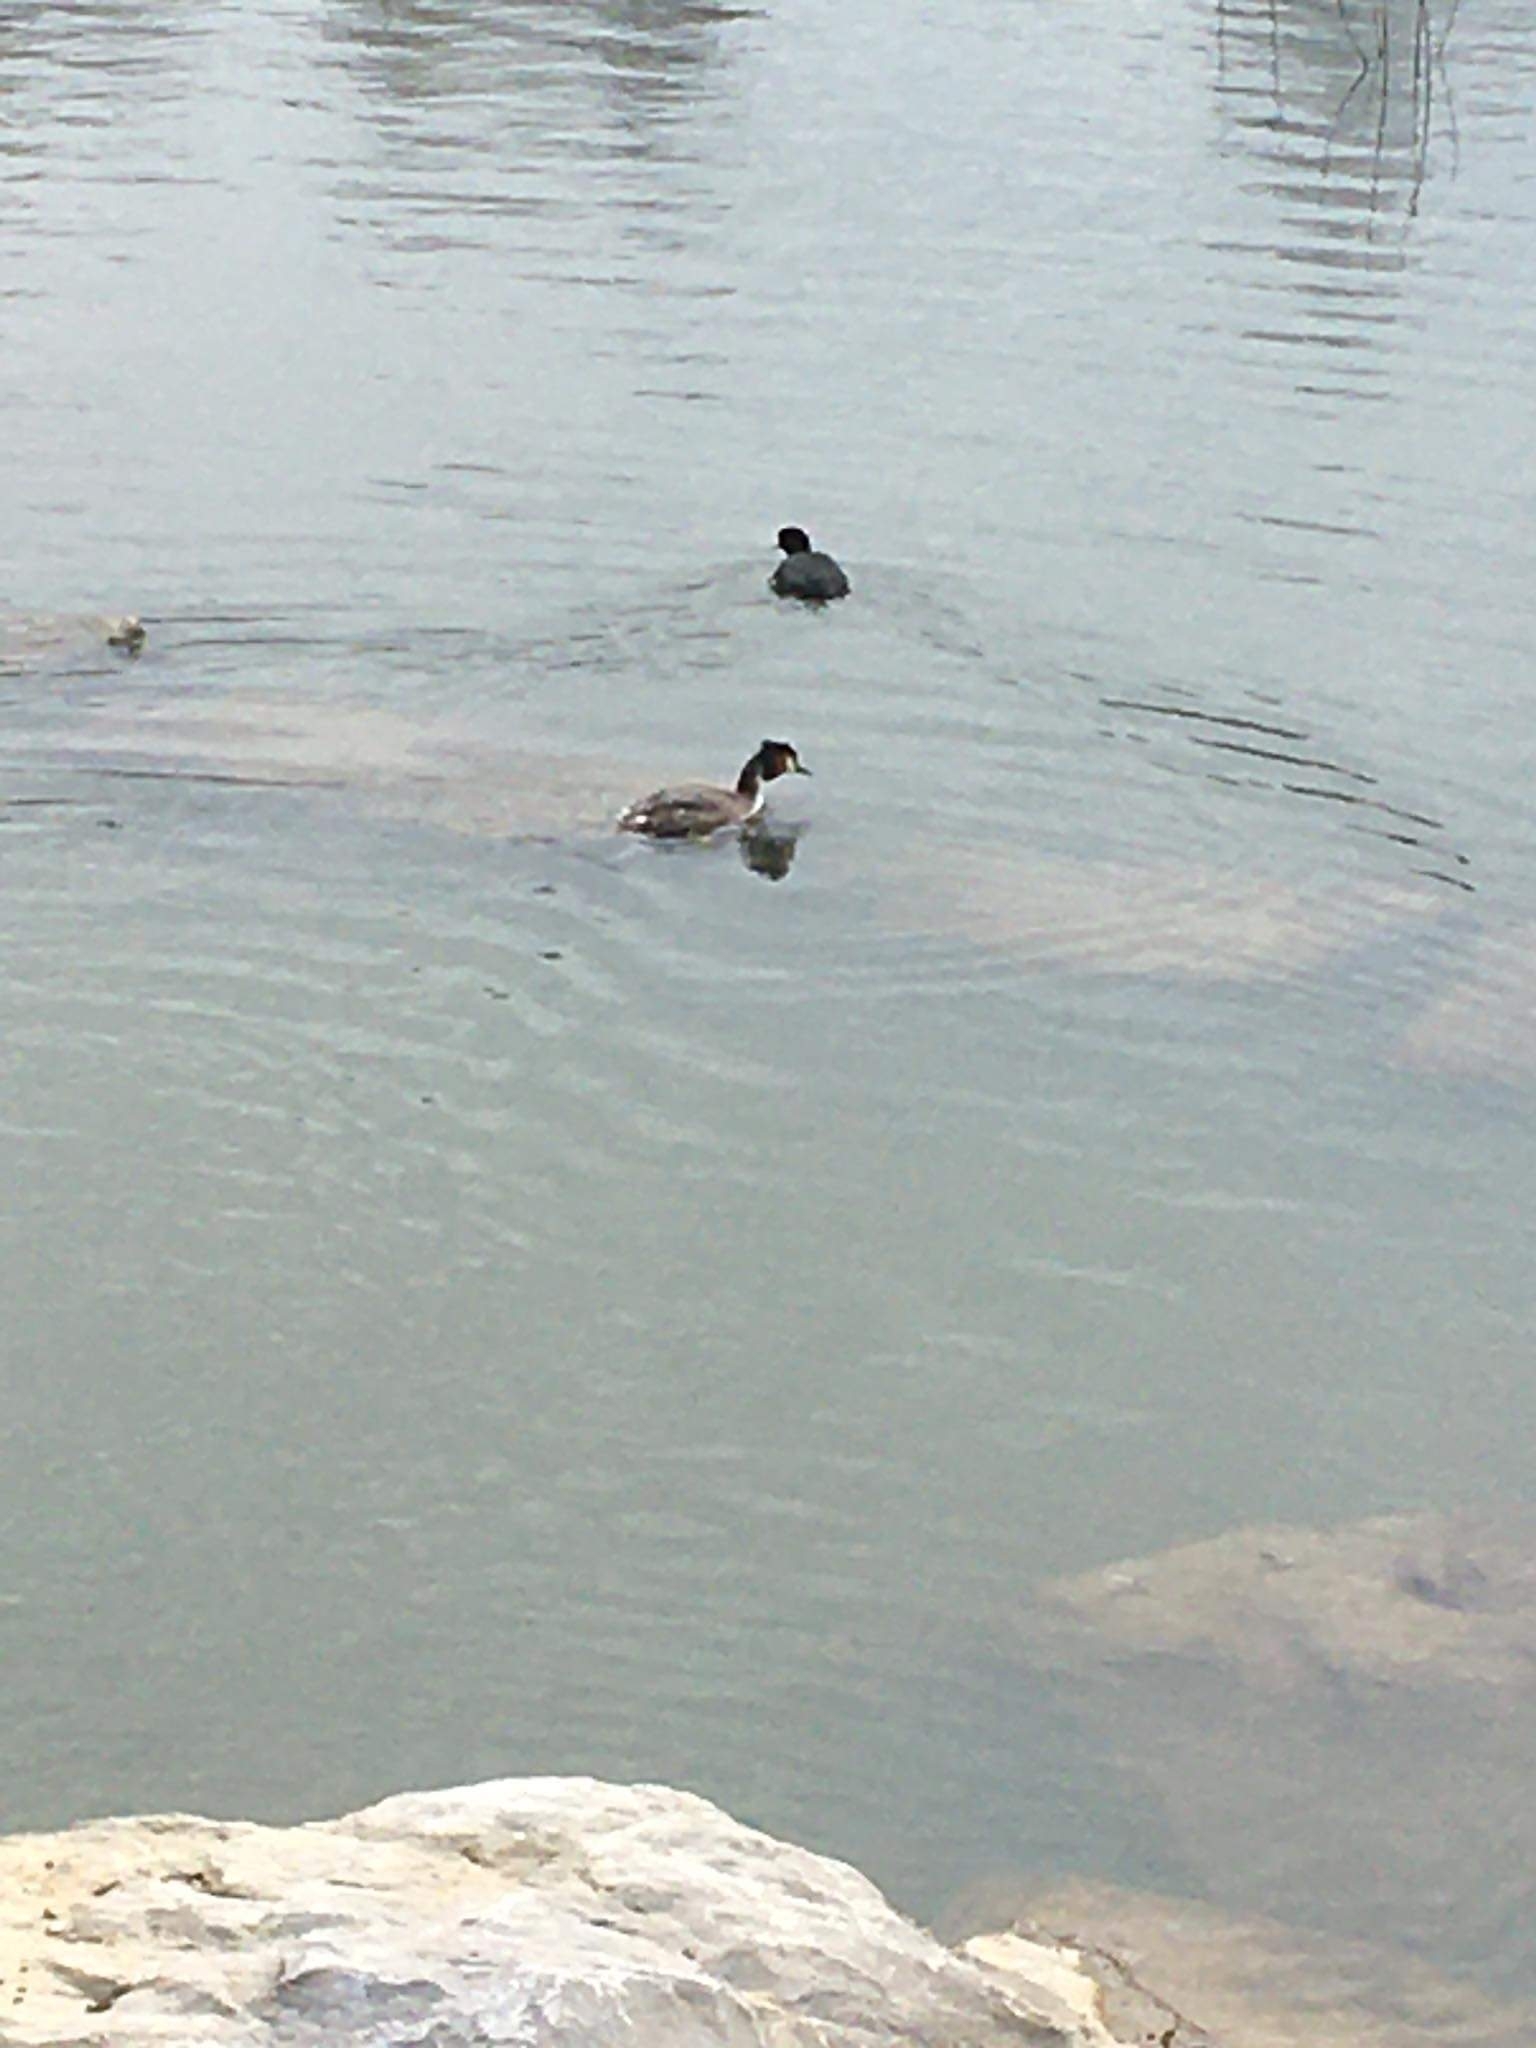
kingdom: Animalia
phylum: Chordata
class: Aves
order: Podicipediformes
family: Podicipedidae
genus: Podiceps
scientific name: Podiceps cristatus
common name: Great crested grebe
